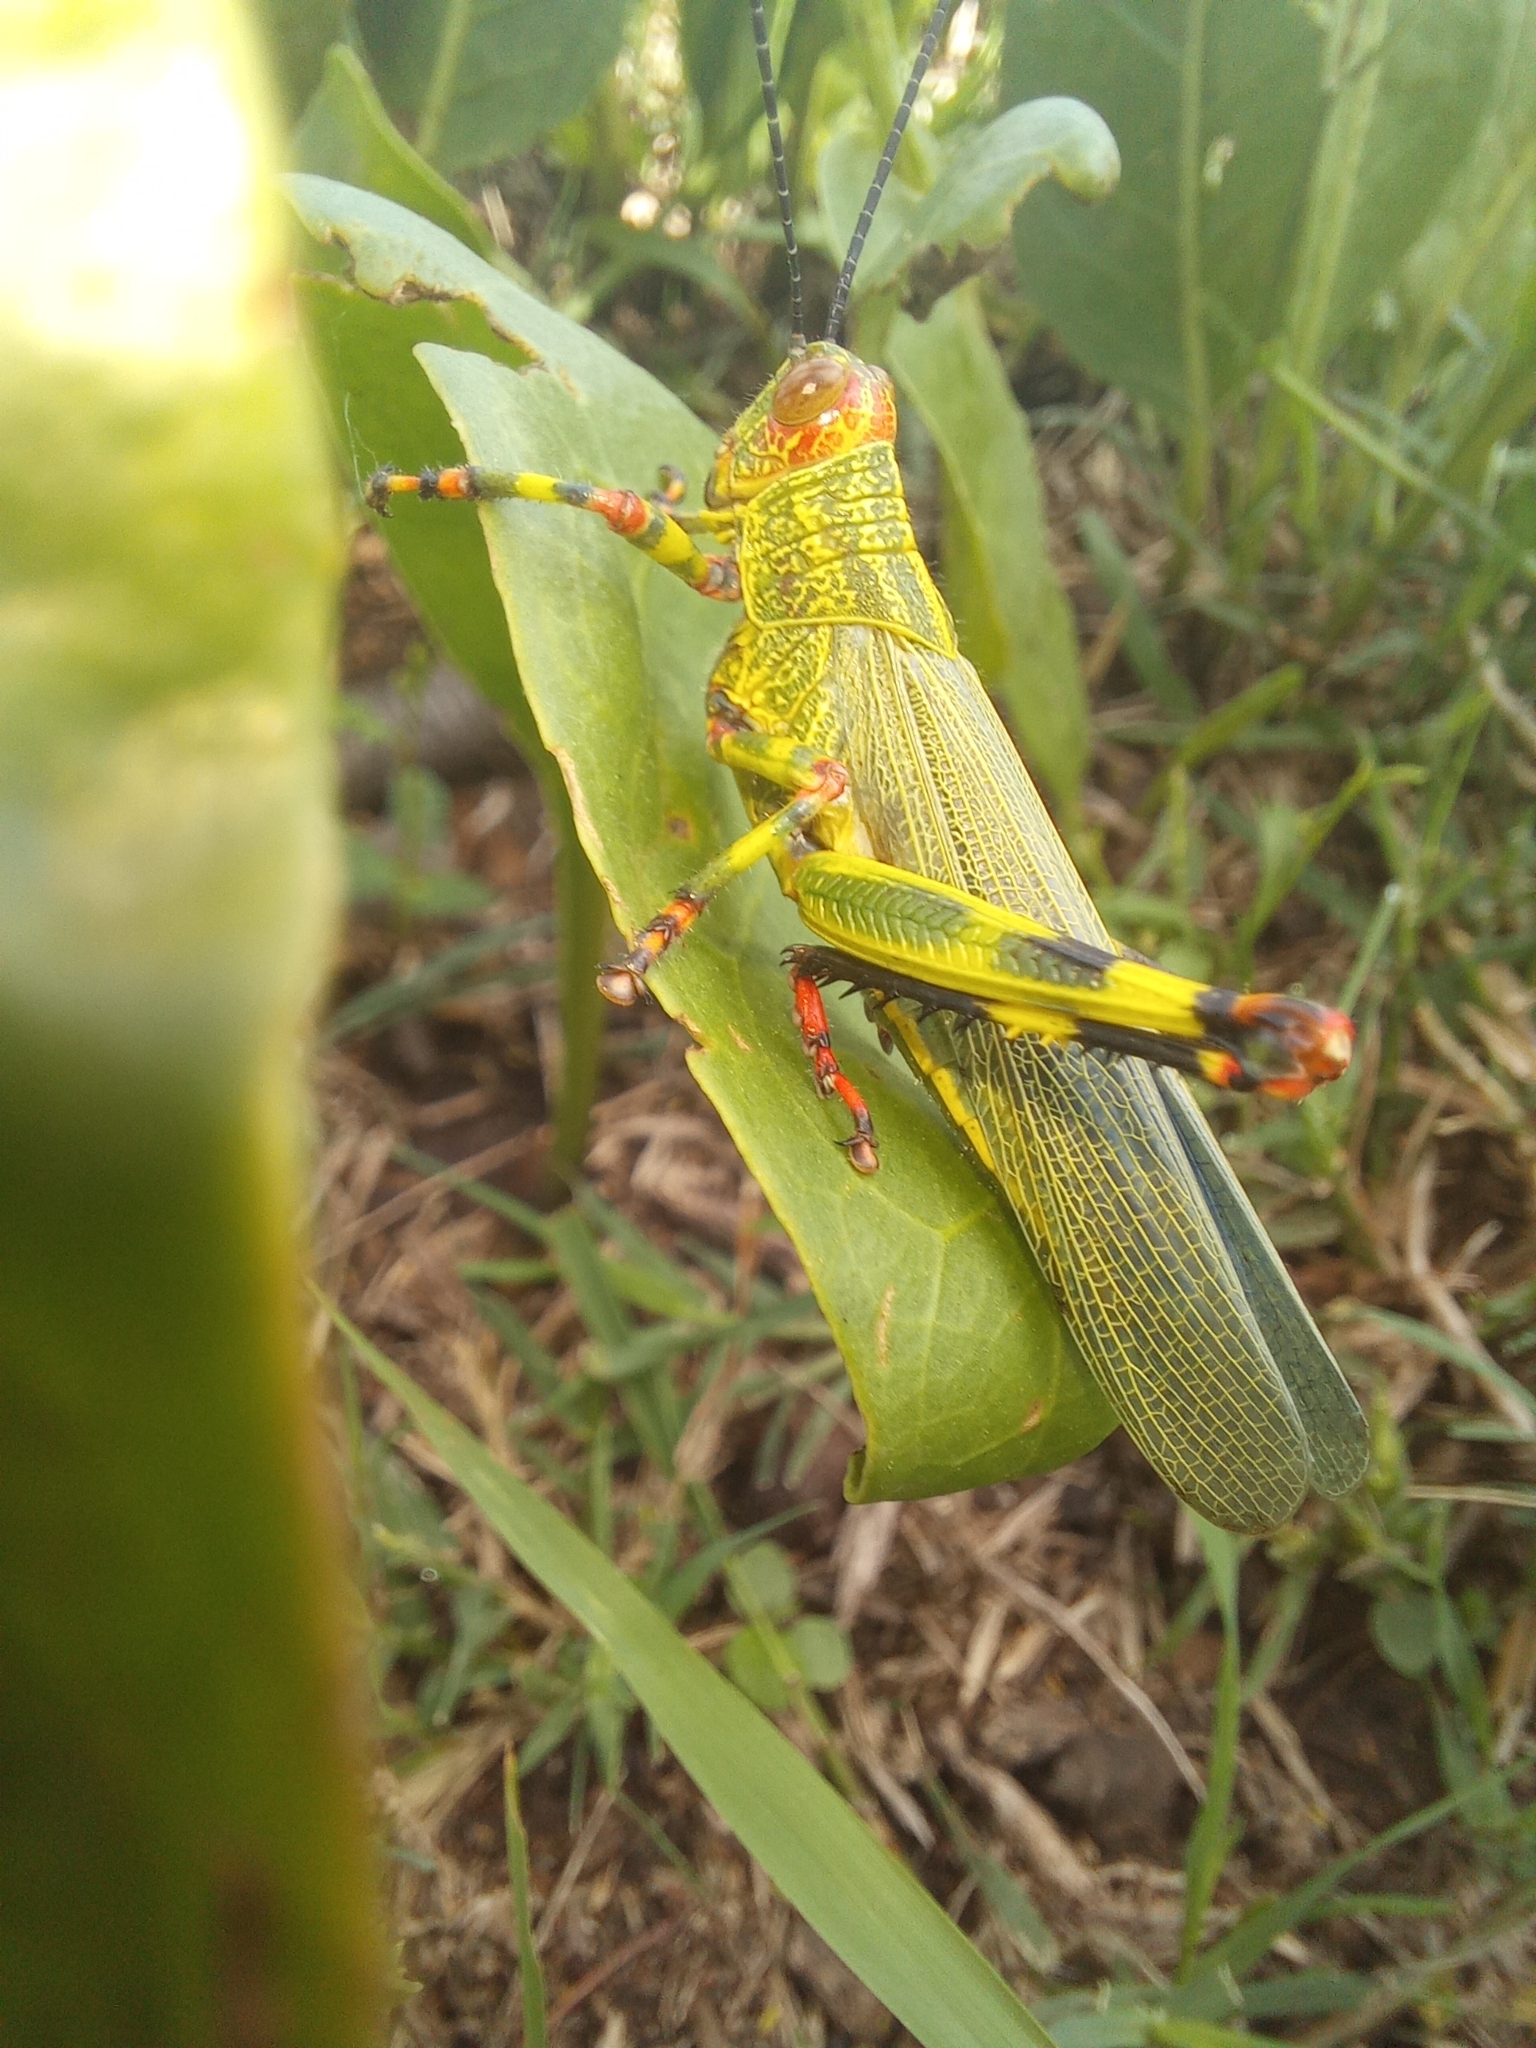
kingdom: Animalia
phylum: Arthropoda
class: Insecta
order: Orthoptera
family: Romaleidae
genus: Zoniopoda
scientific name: Zoniopoda tarsata
